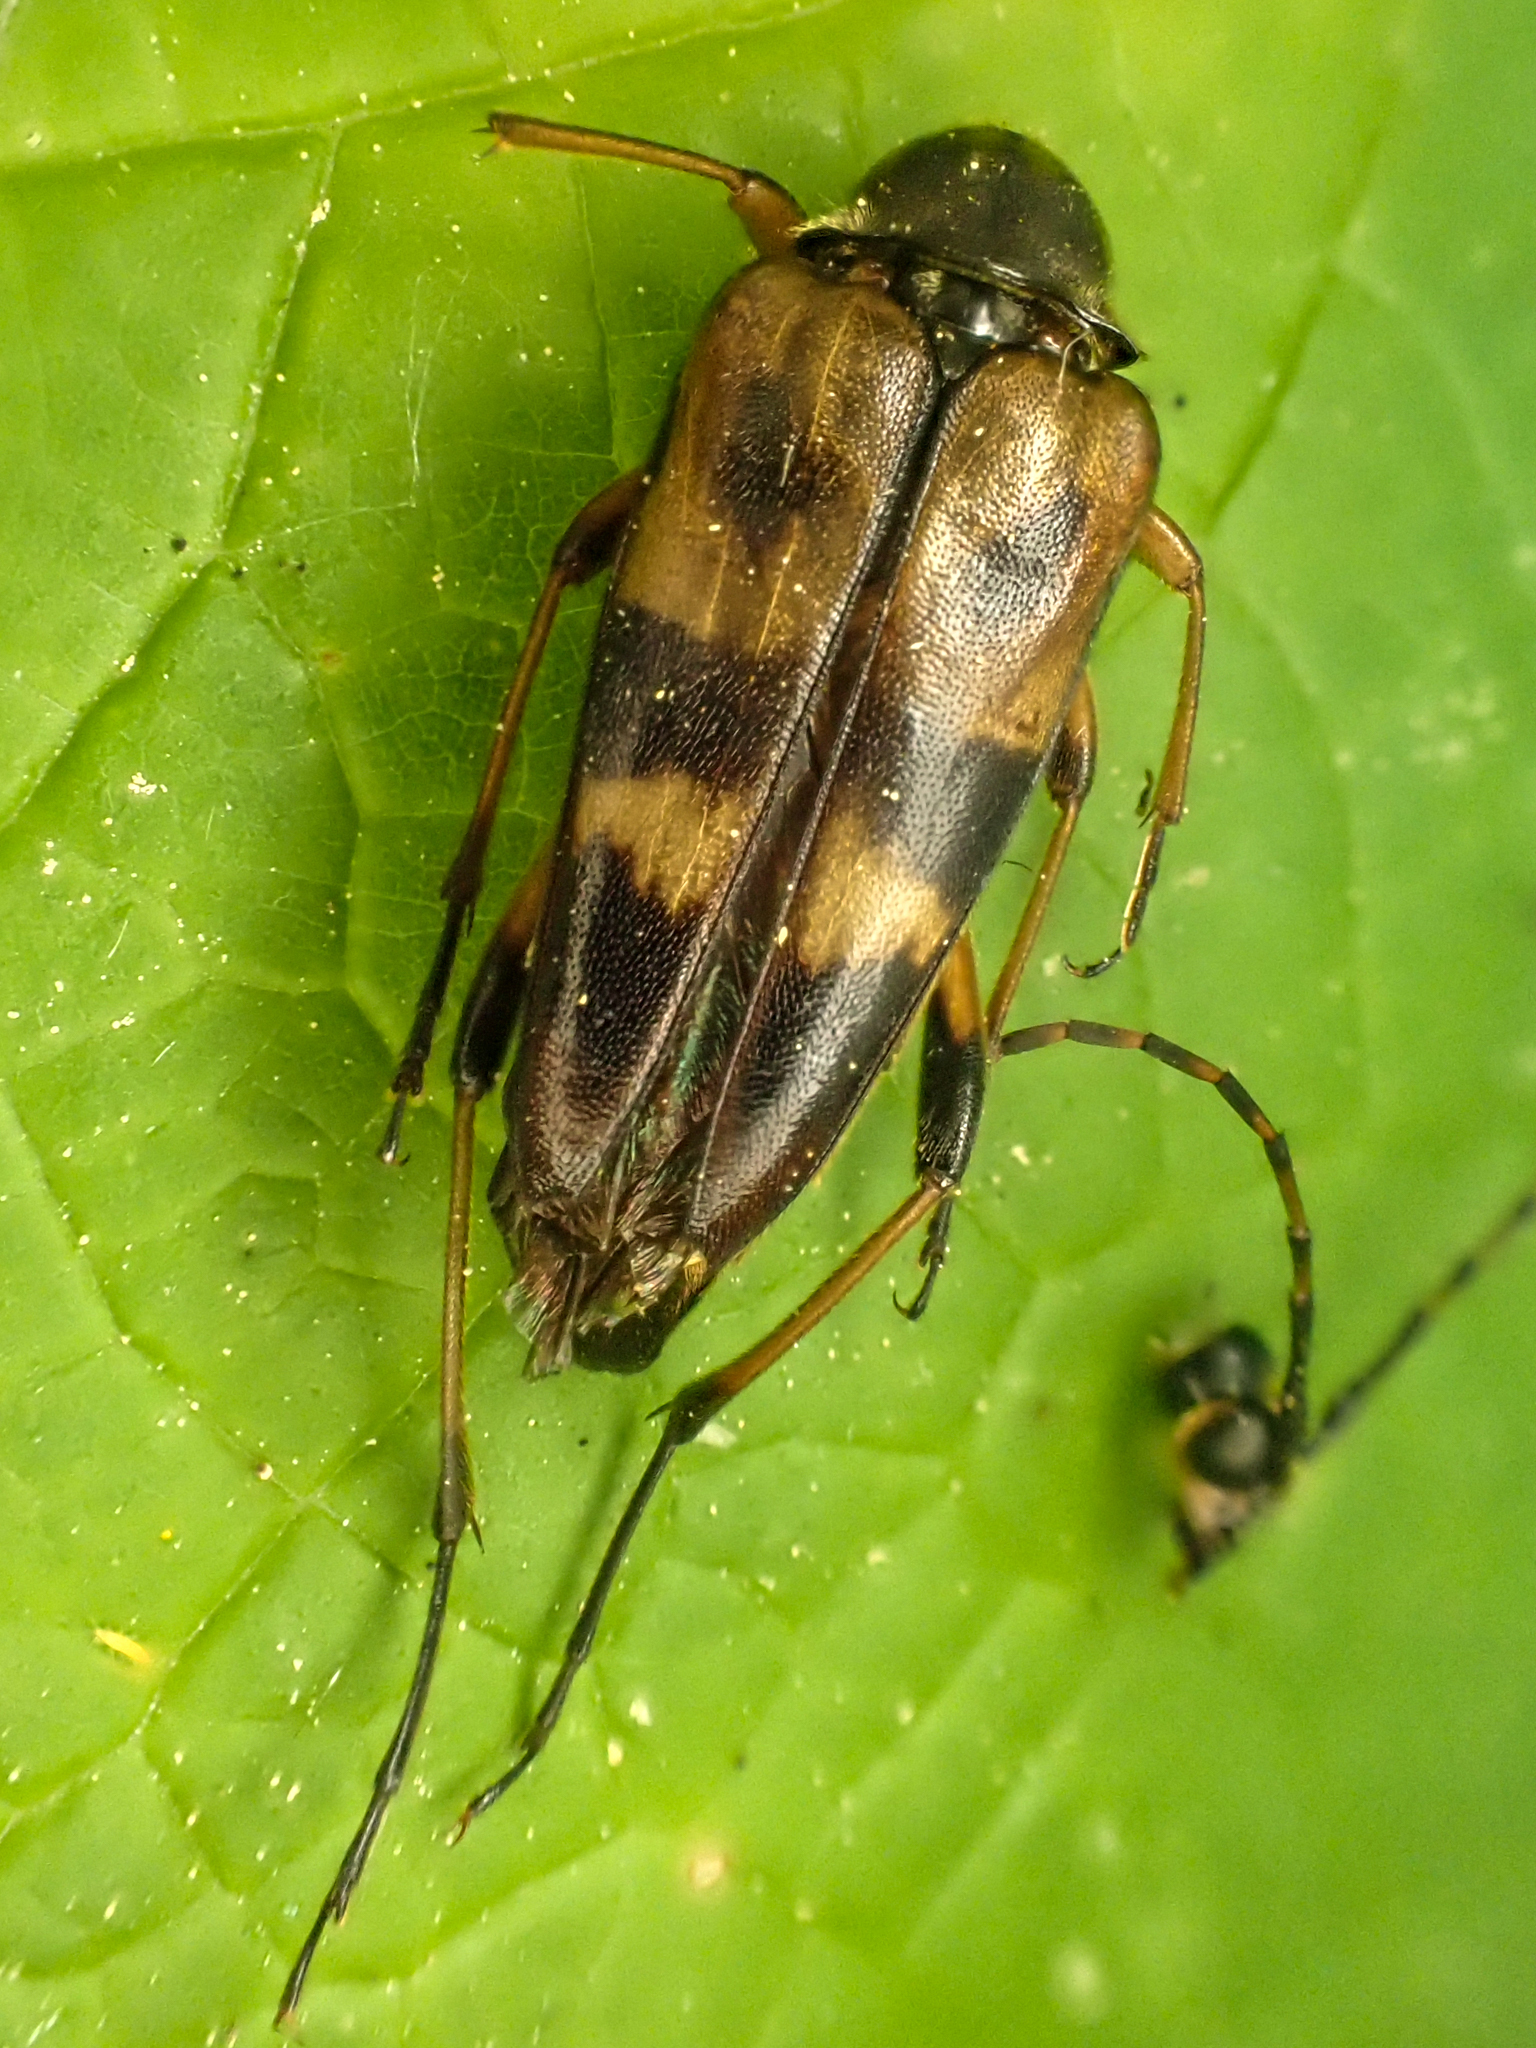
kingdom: Animalia
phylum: Arthropoda
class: Insecta
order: Coleoptera
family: Cerambycidae
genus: Etorofus
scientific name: Etorofus obliteratus
